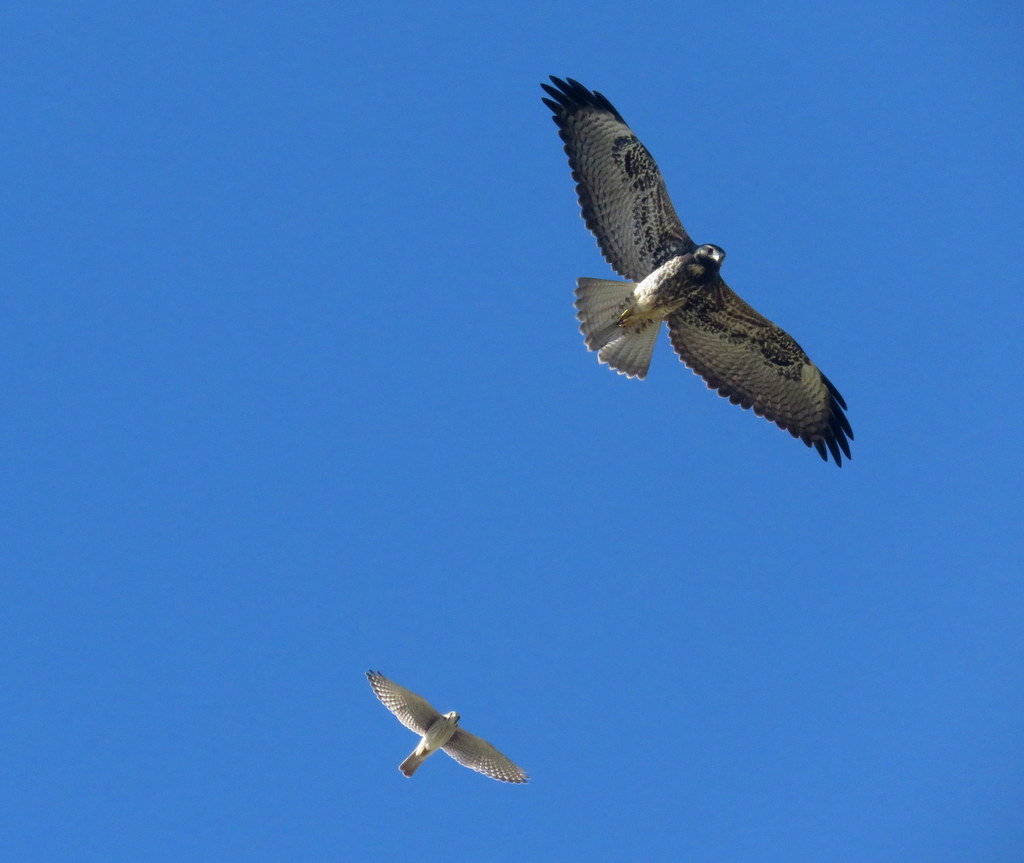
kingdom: Animalia
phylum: Chordata
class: Aves
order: Accipitriformes
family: Accipitridae
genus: Buteo
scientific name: Buteo albicaudatus
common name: White-tailed hawk
